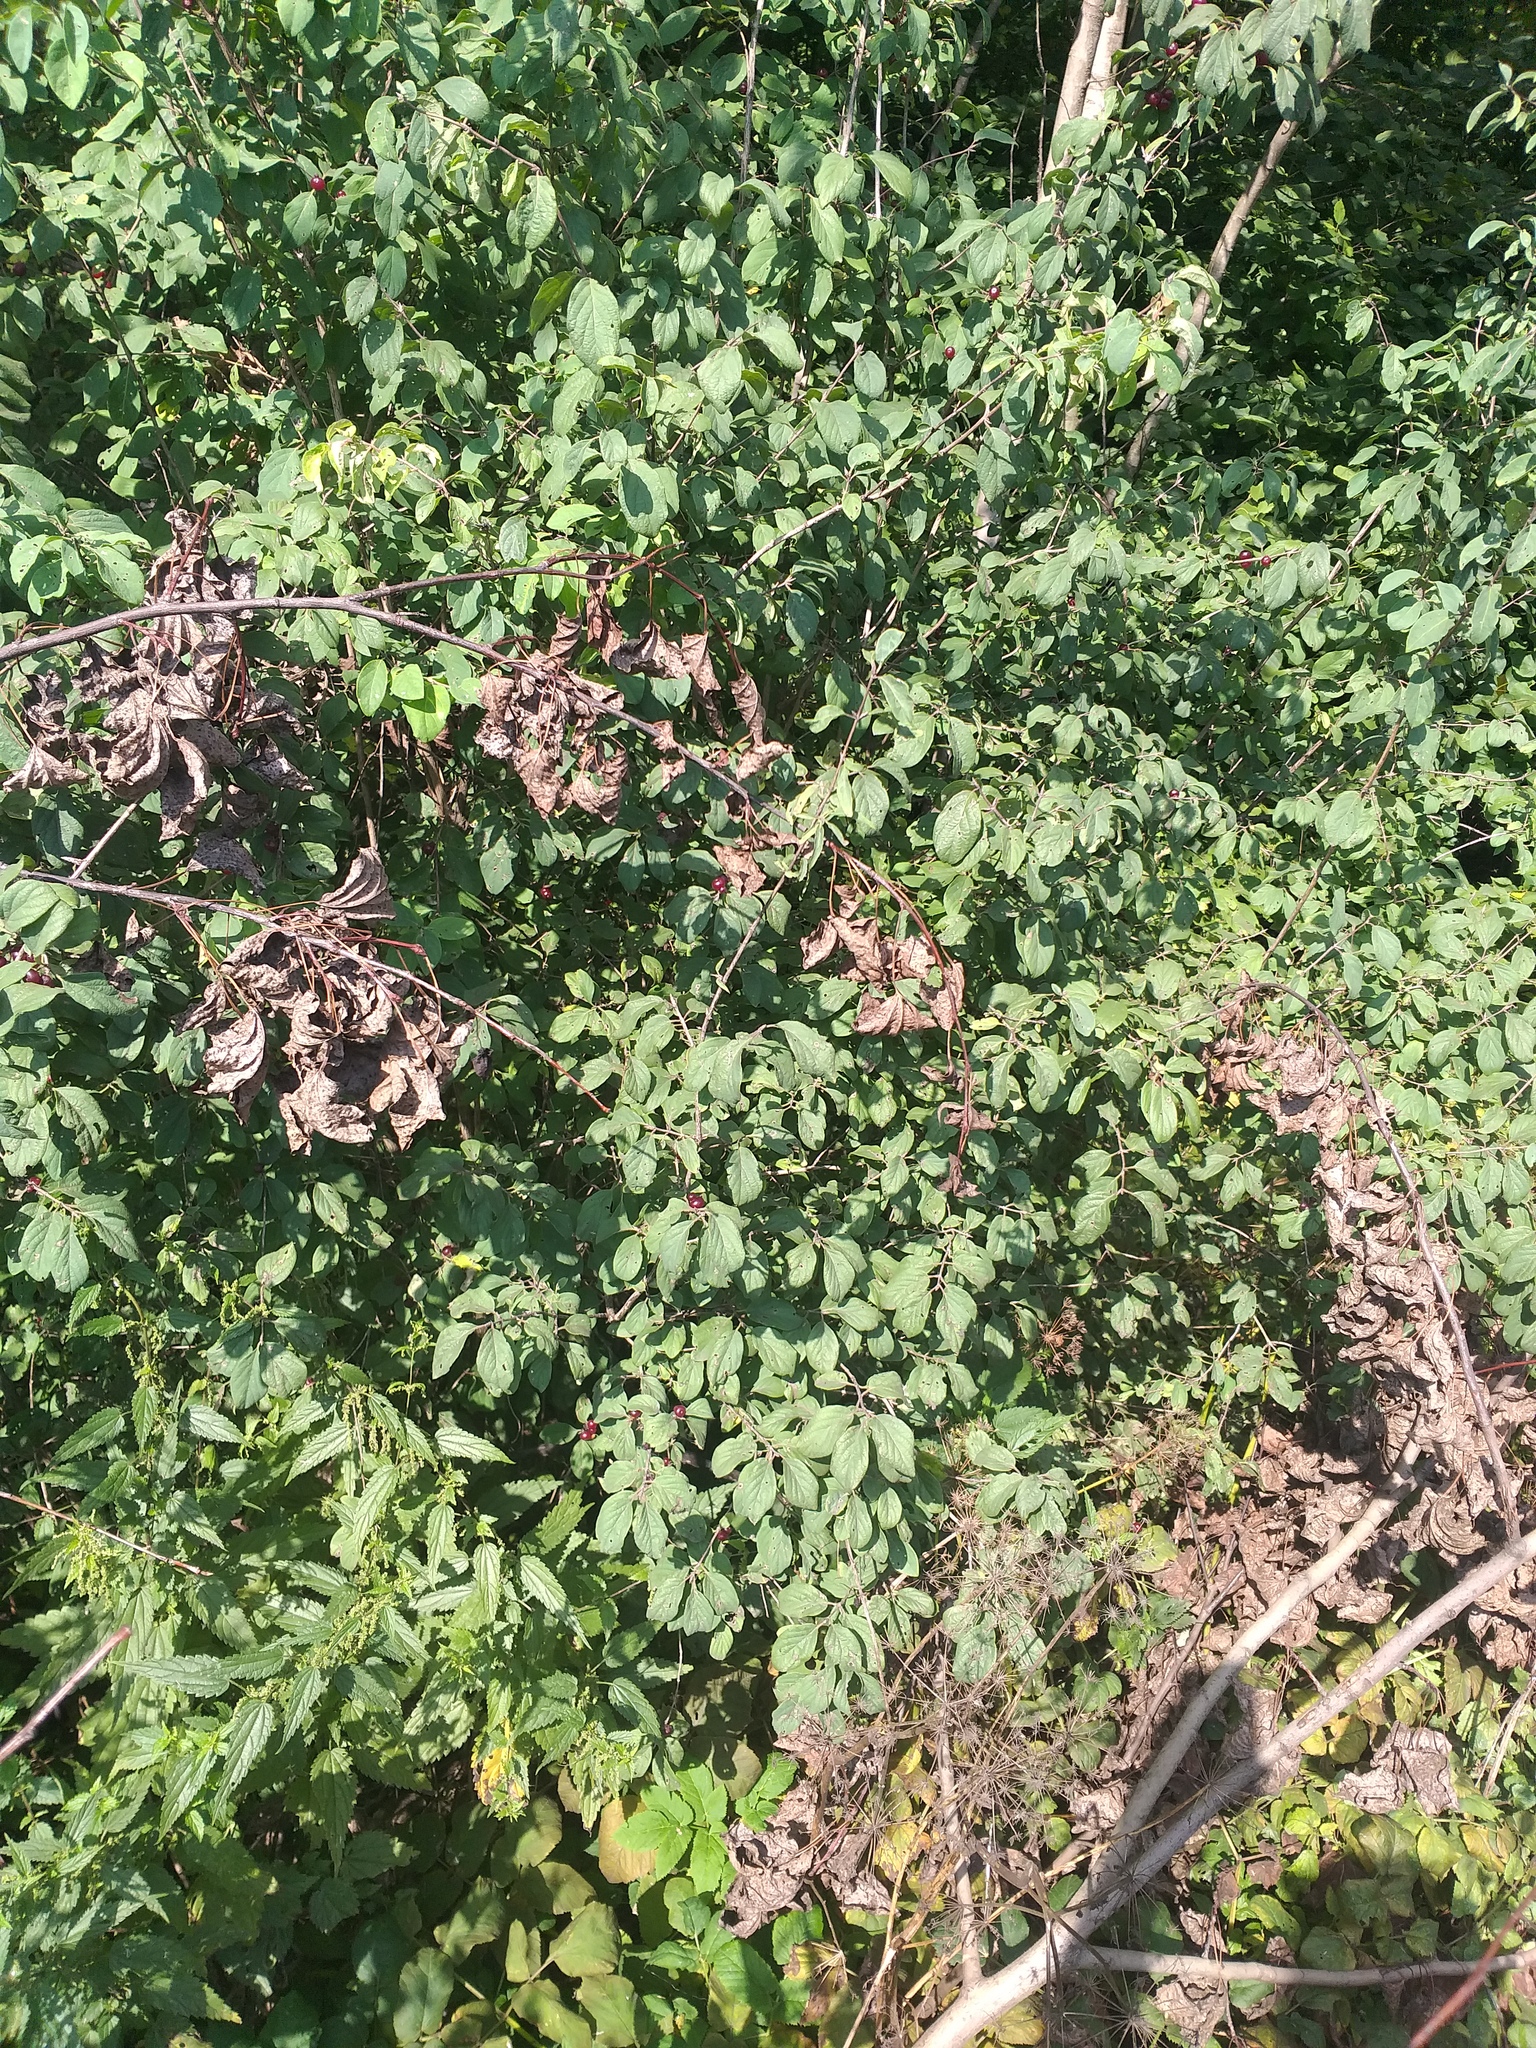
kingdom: Plantae
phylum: Tracheophyta
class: Magnoliopsida
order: Dipsacales
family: Caprifoliaceae
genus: Lonicera
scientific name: Lonicera xylosteum
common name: Fly honeysuckle
